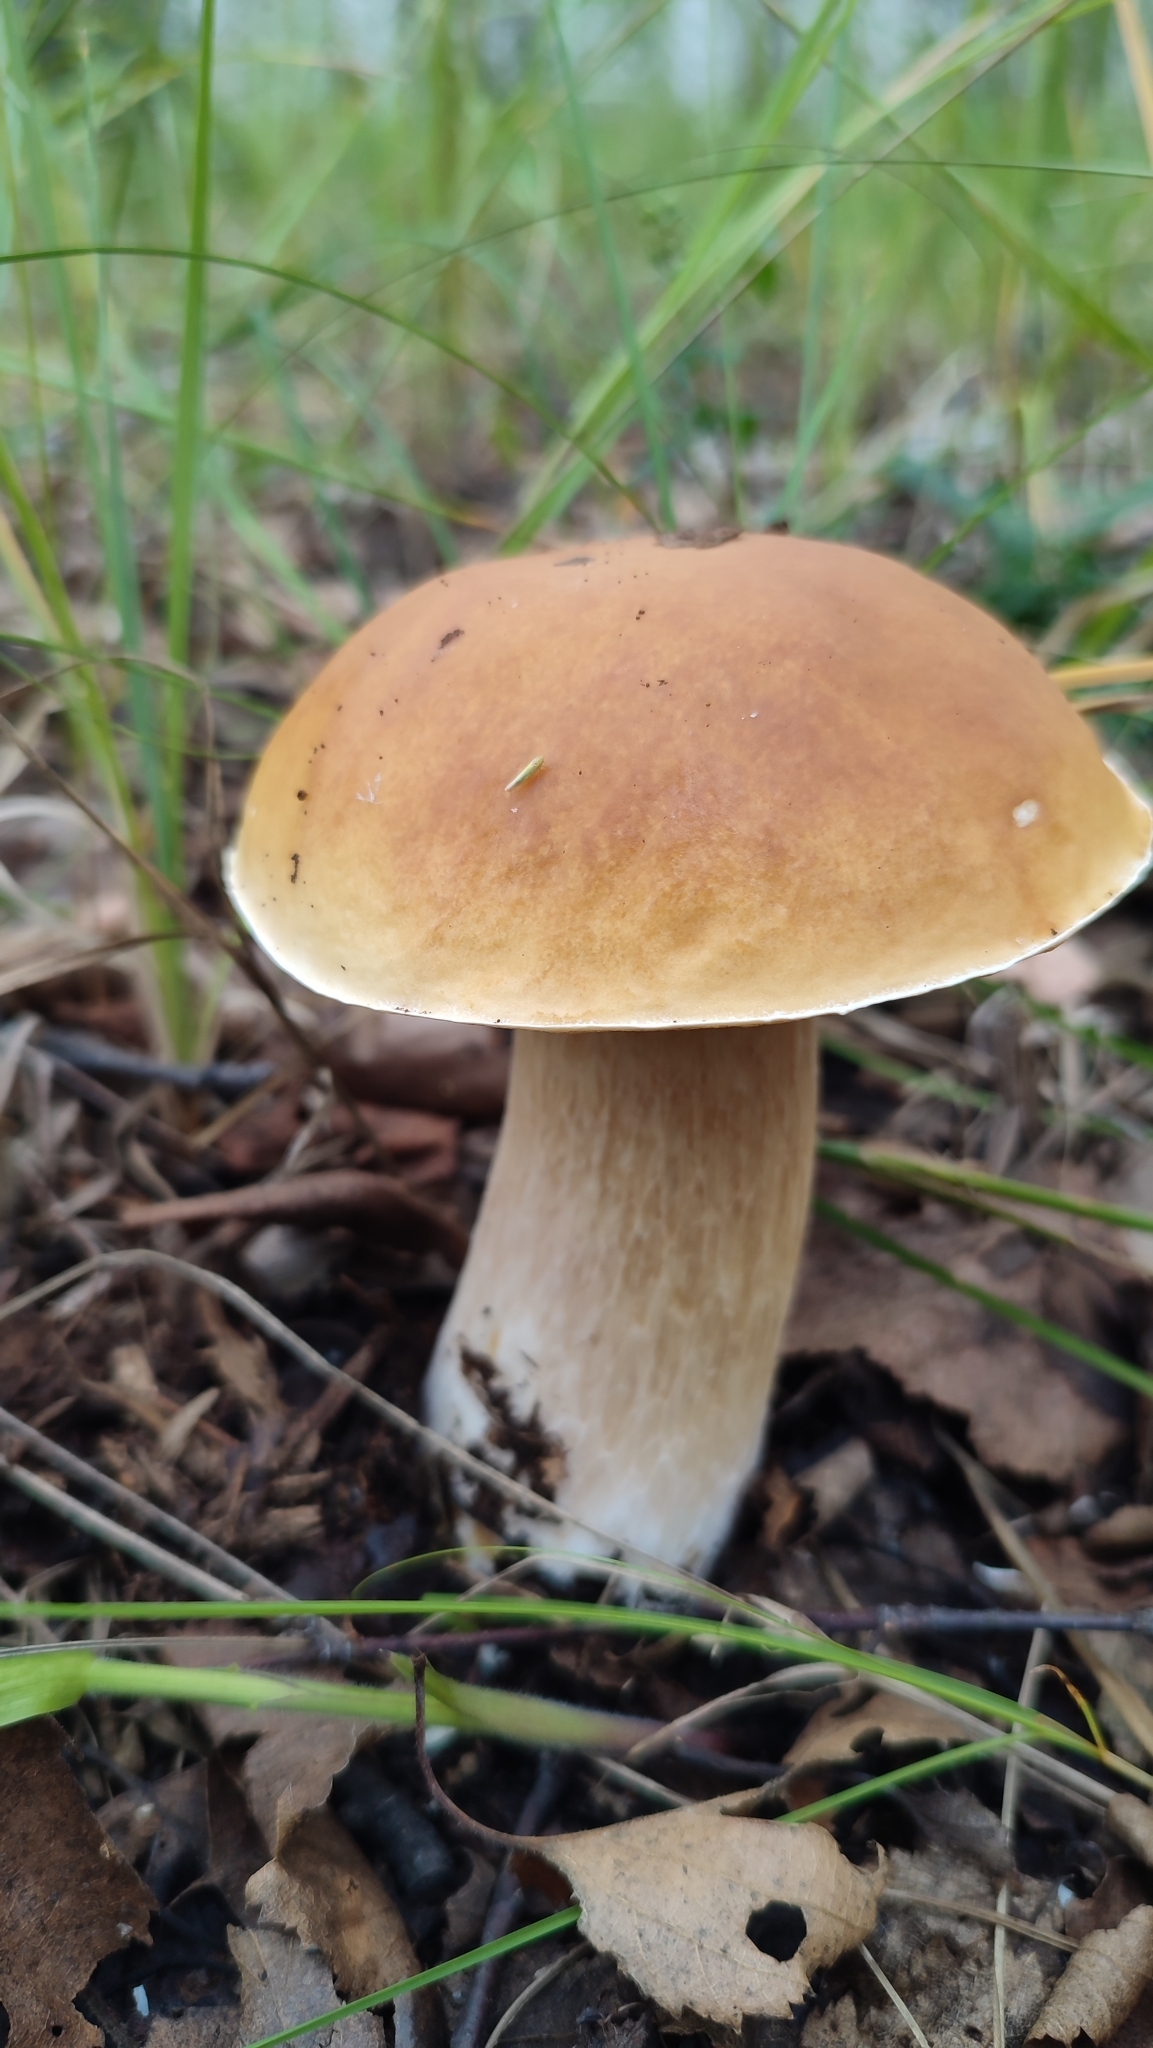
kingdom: Fungi
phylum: Basidiomycota
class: Agaricomycetes
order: Boletales
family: Boletaceae
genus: Boletus
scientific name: Boletus edulis
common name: Cep
